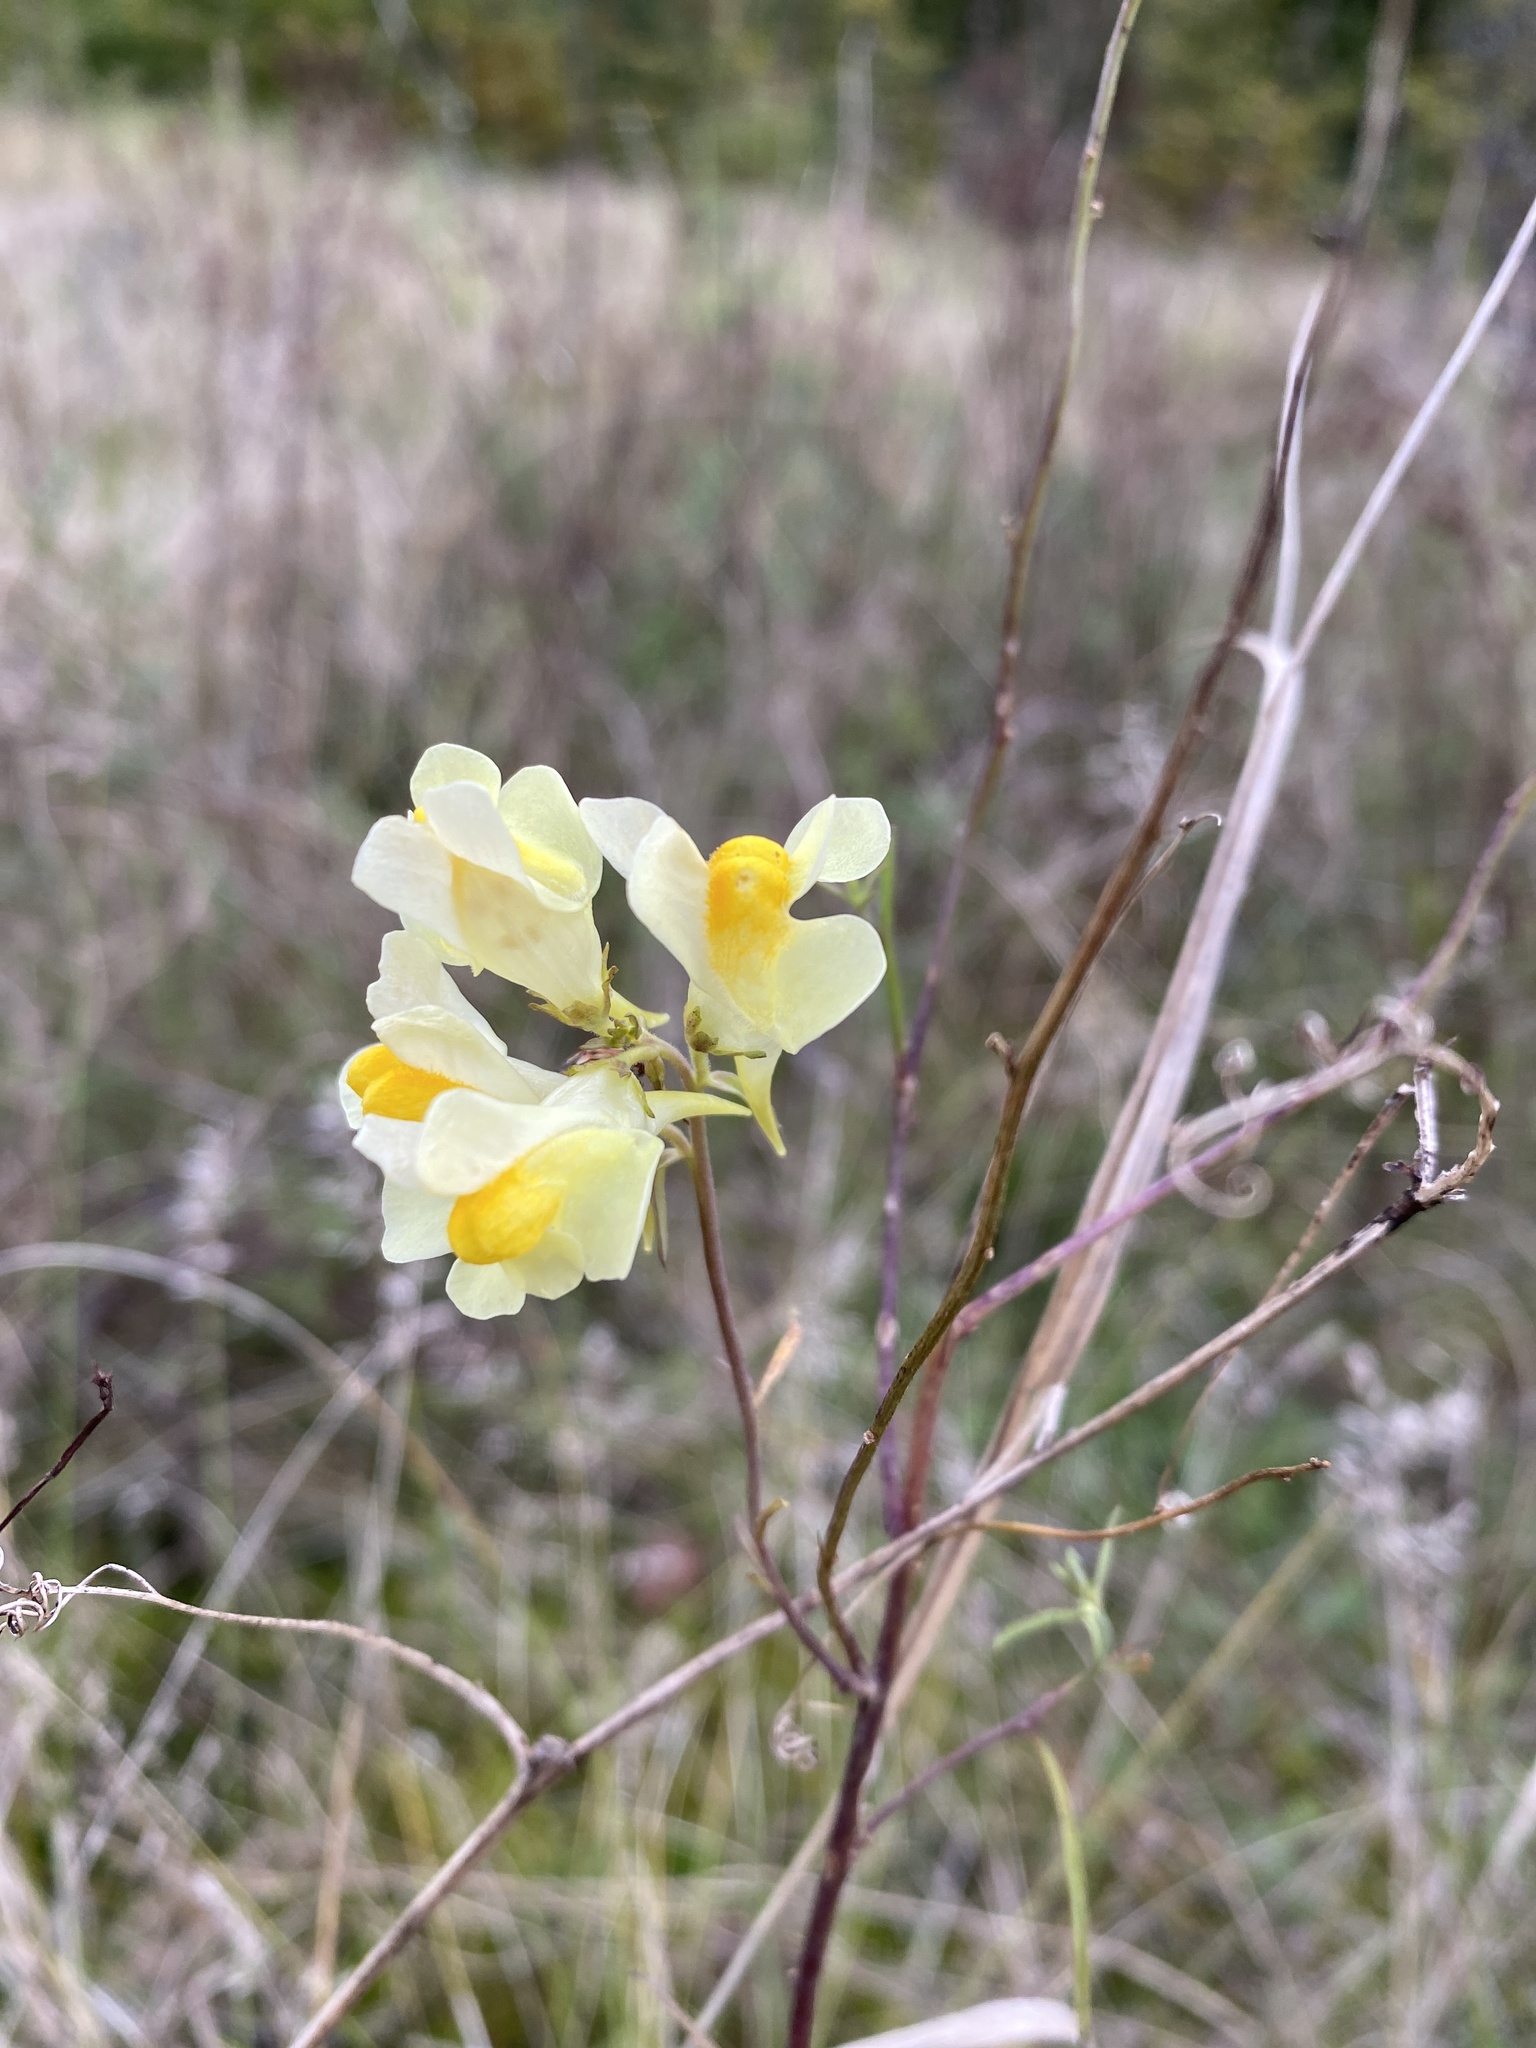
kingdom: Plantae
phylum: Tracheophyta
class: Magnoliopsida
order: Lamiales
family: Plantaginaceae
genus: Linaria
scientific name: Linaria vulgaris
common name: Butter and eggs
